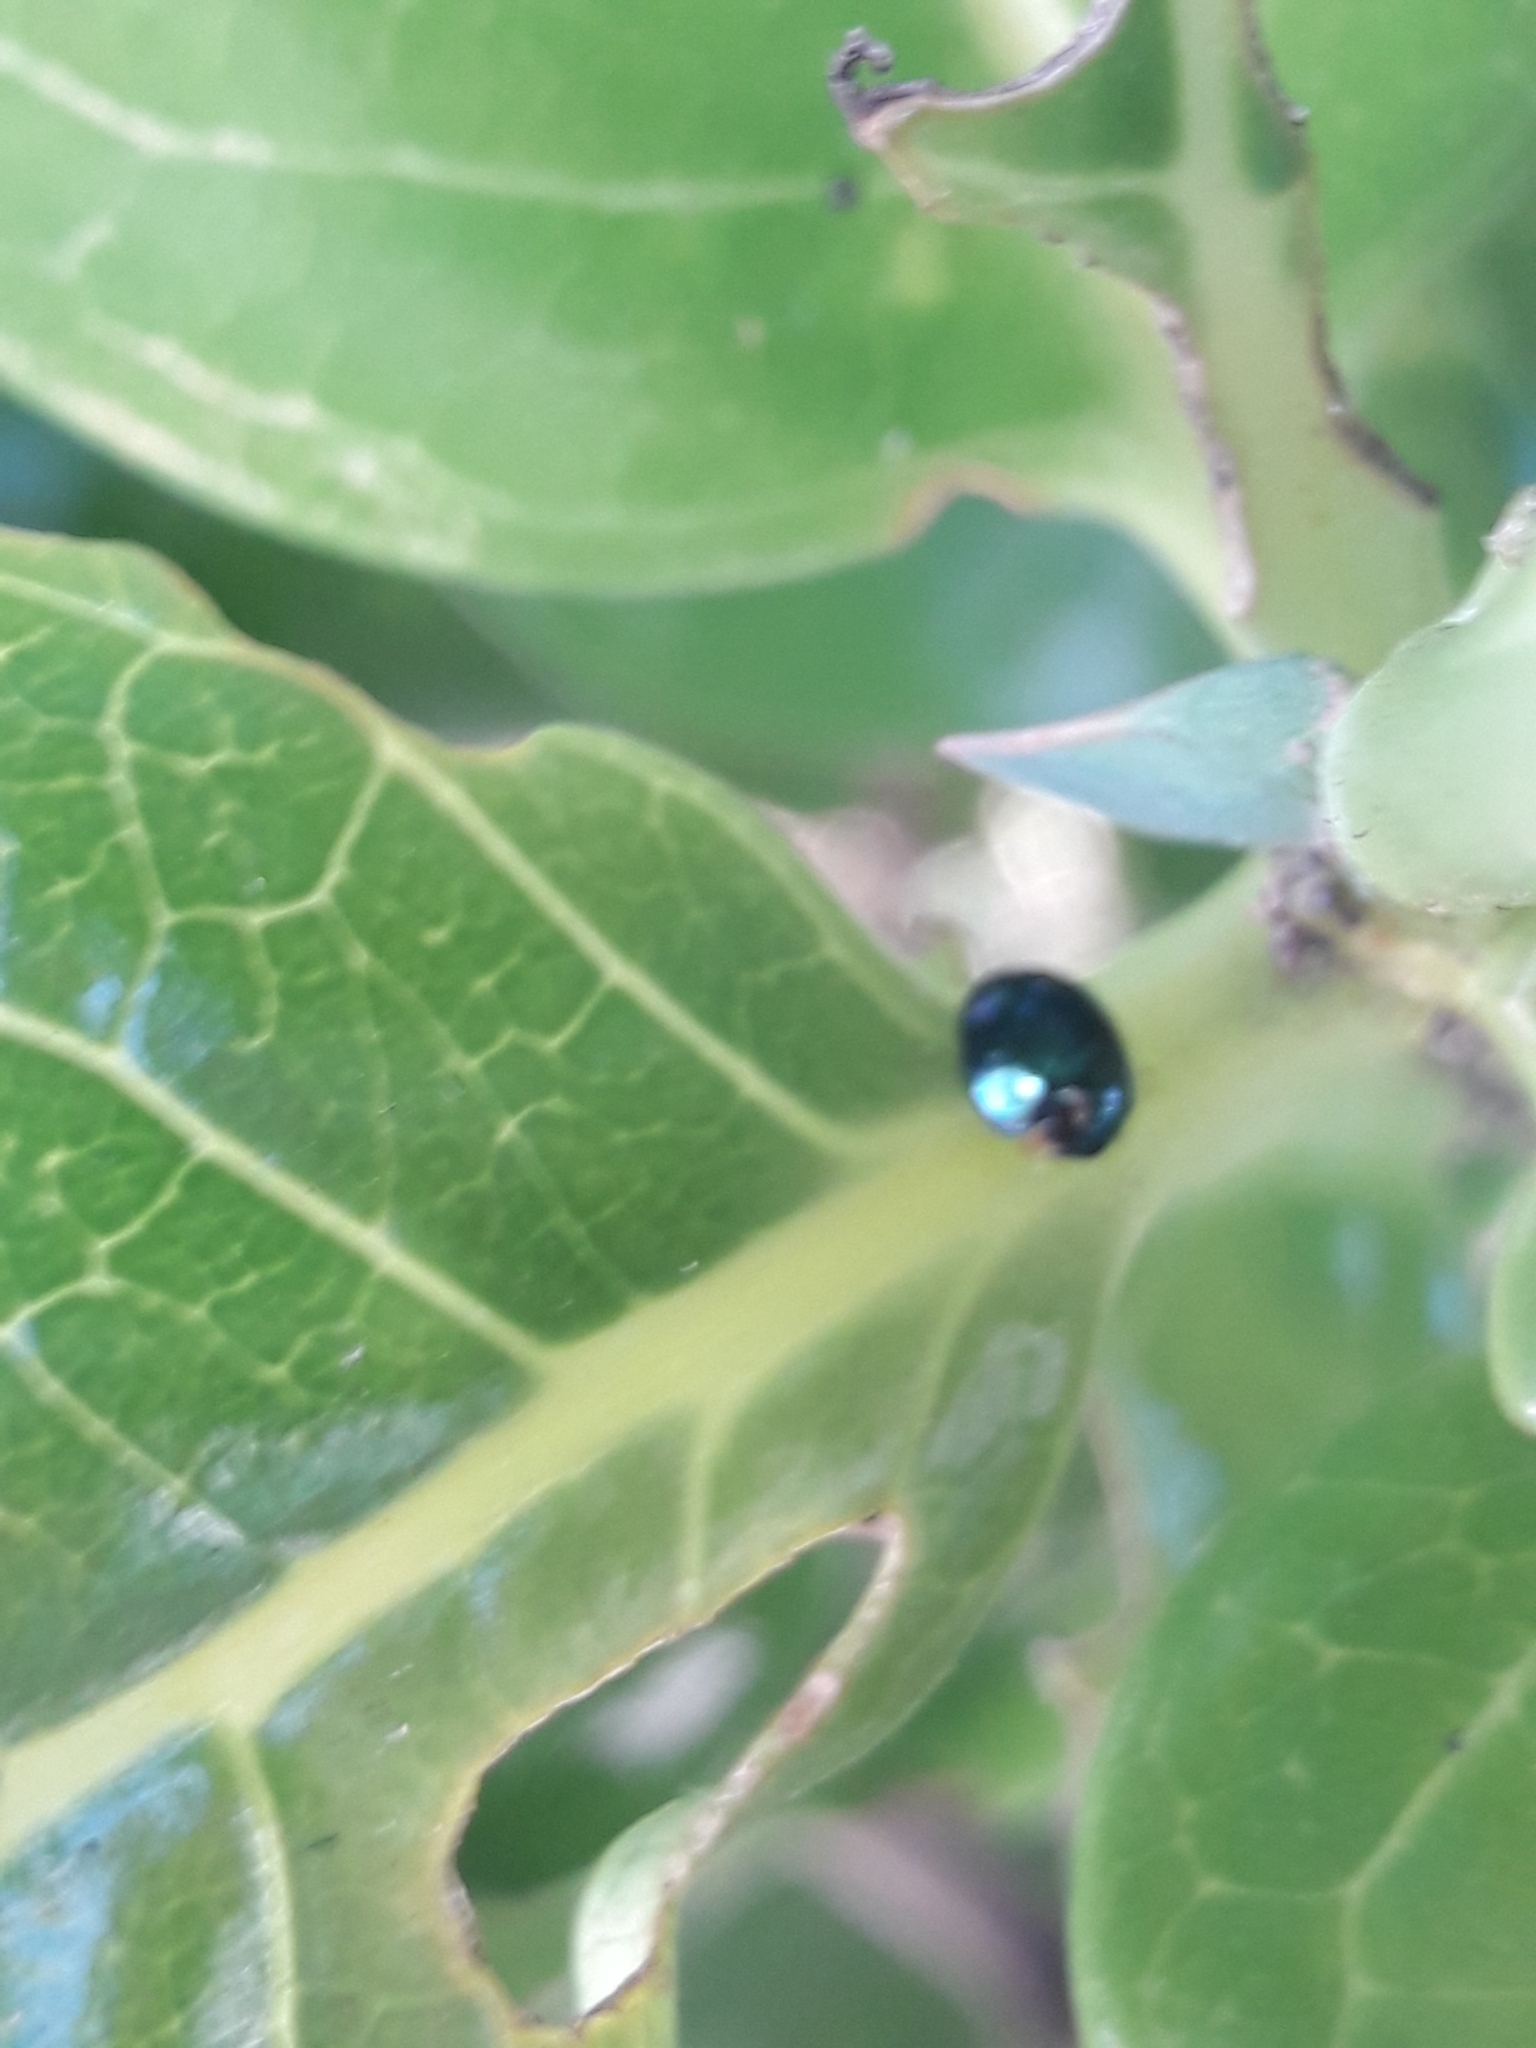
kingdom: Animalia
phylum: Arthropoda
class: Insecta
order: Coleoptera
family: Coccinellidae
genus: Halmus
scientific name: Halmus chalybeus
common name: Steel blue ladybird beetle
